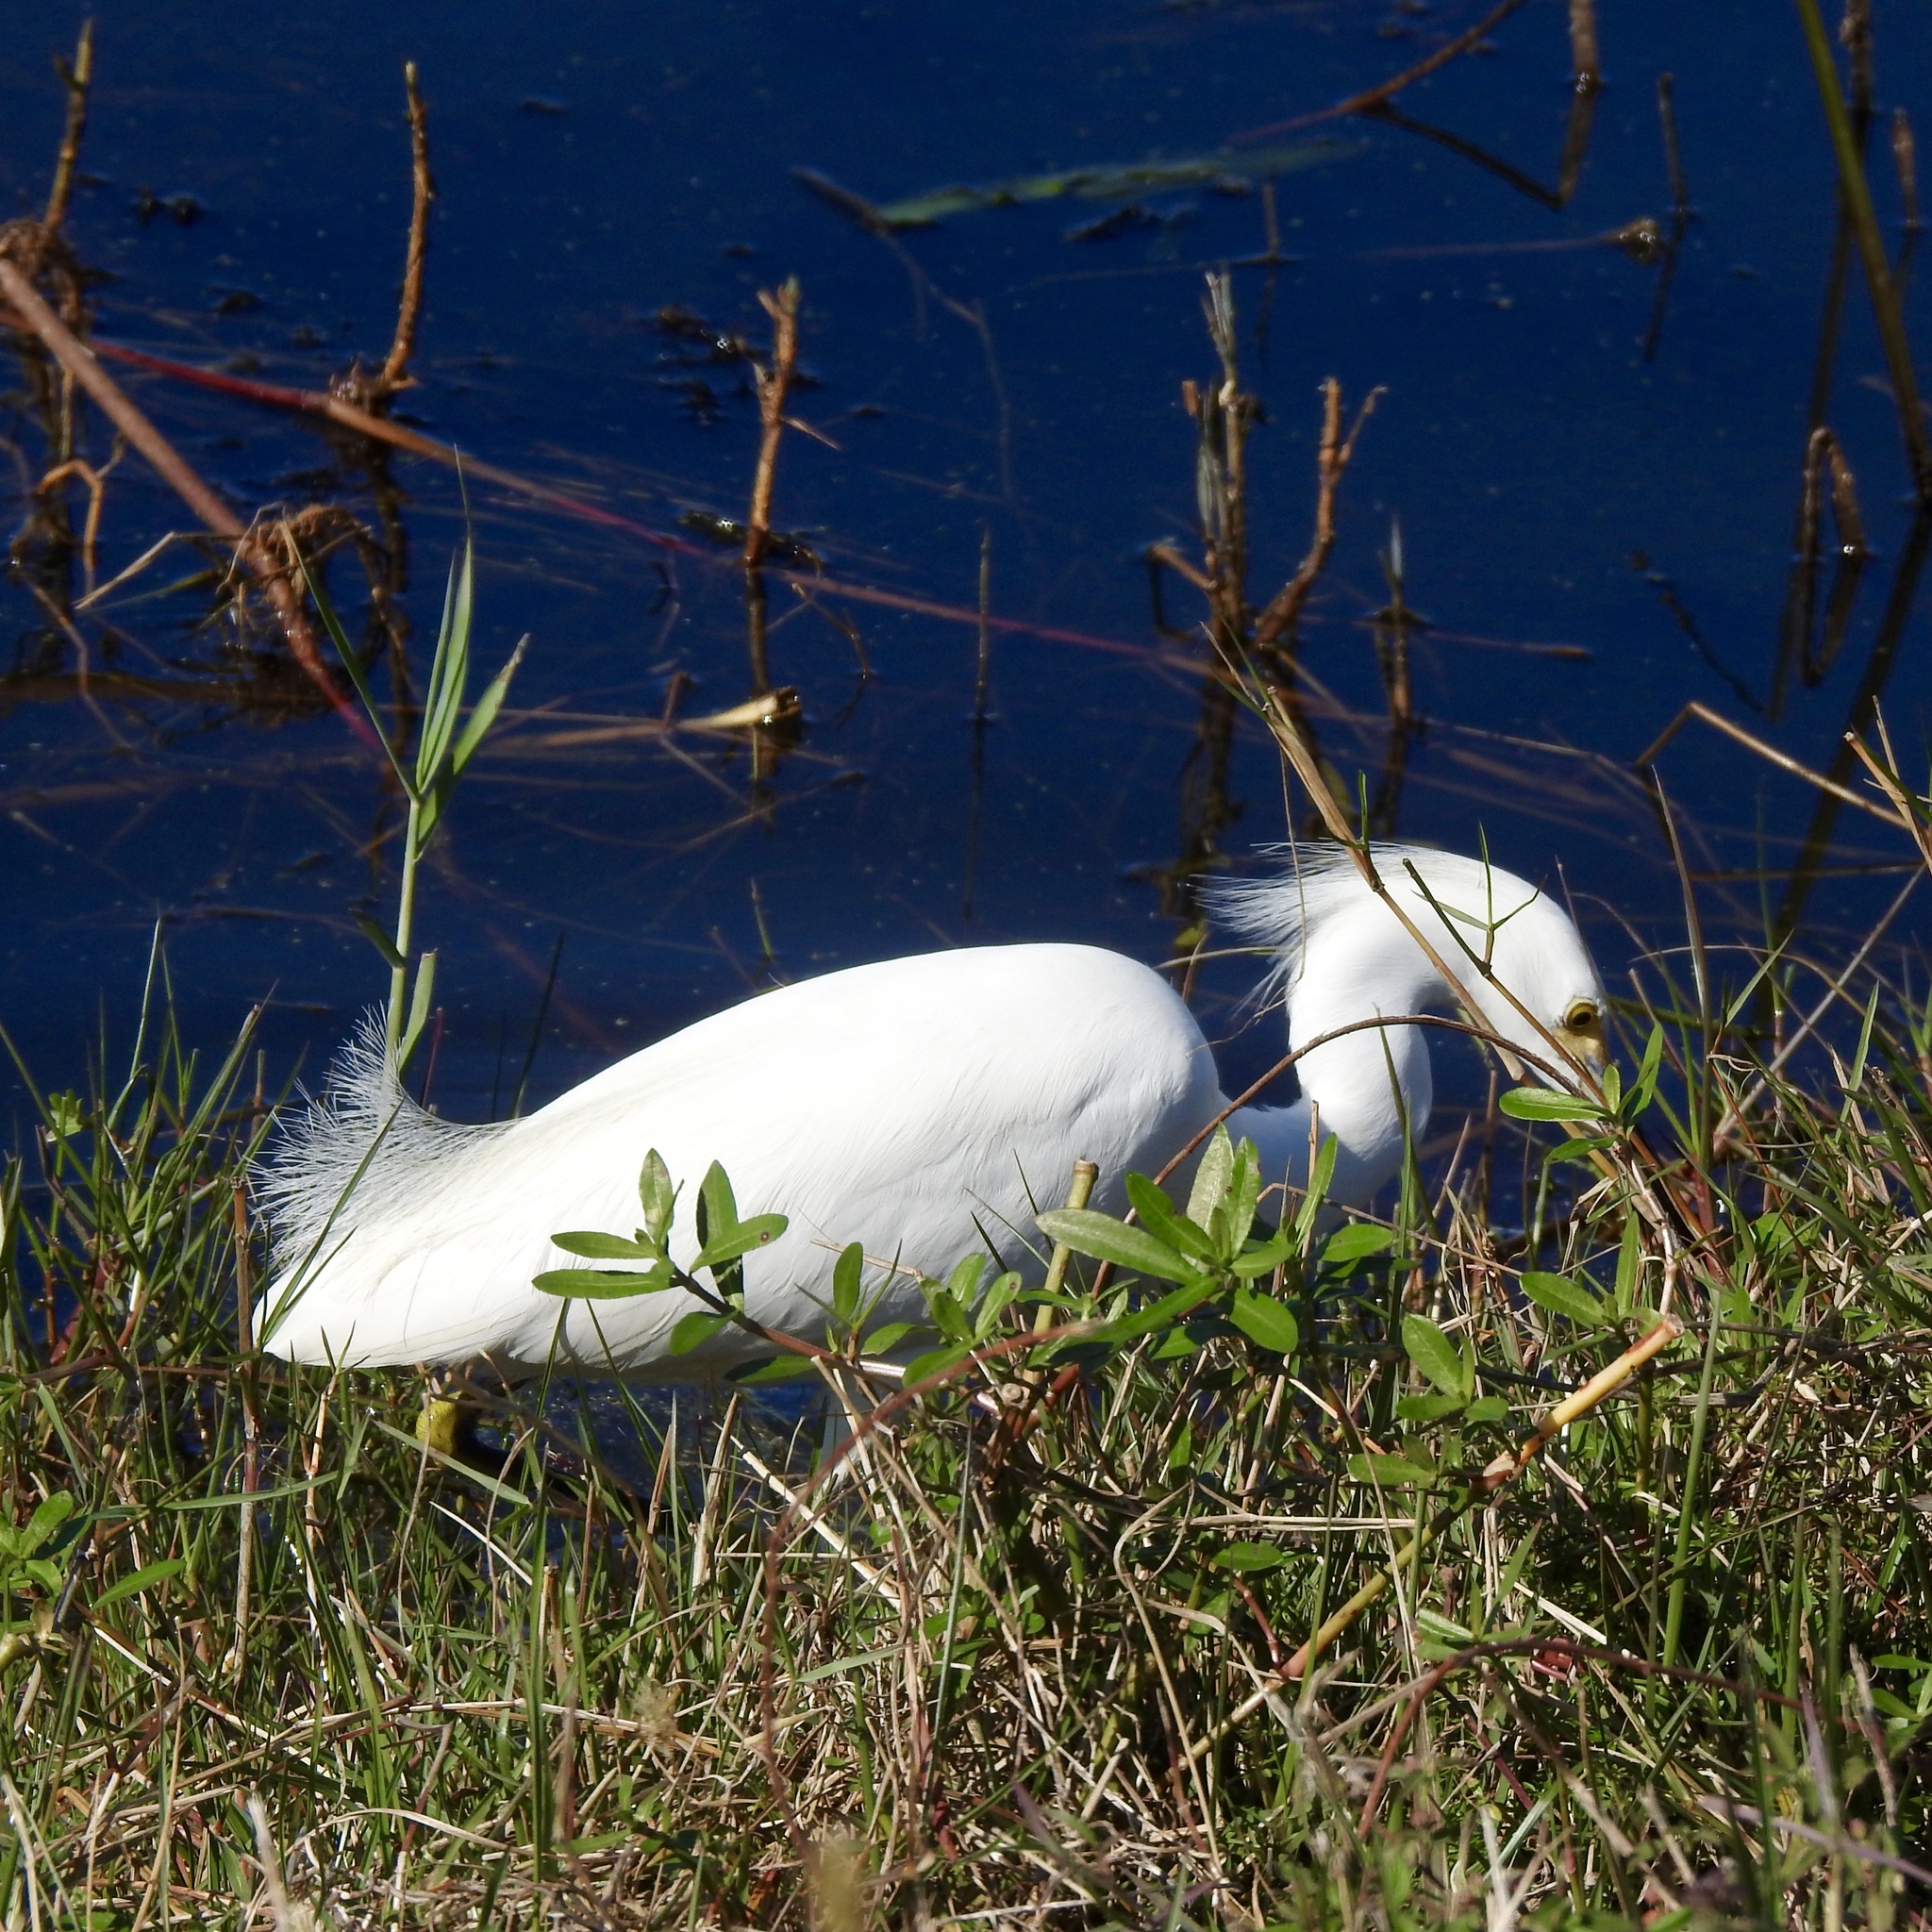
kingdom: Animalia
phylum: Chordata
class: Aves
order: Pelecaniformes
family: Ardeidae
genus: Egretta
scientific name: Egretta thula
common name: Snowy egret
